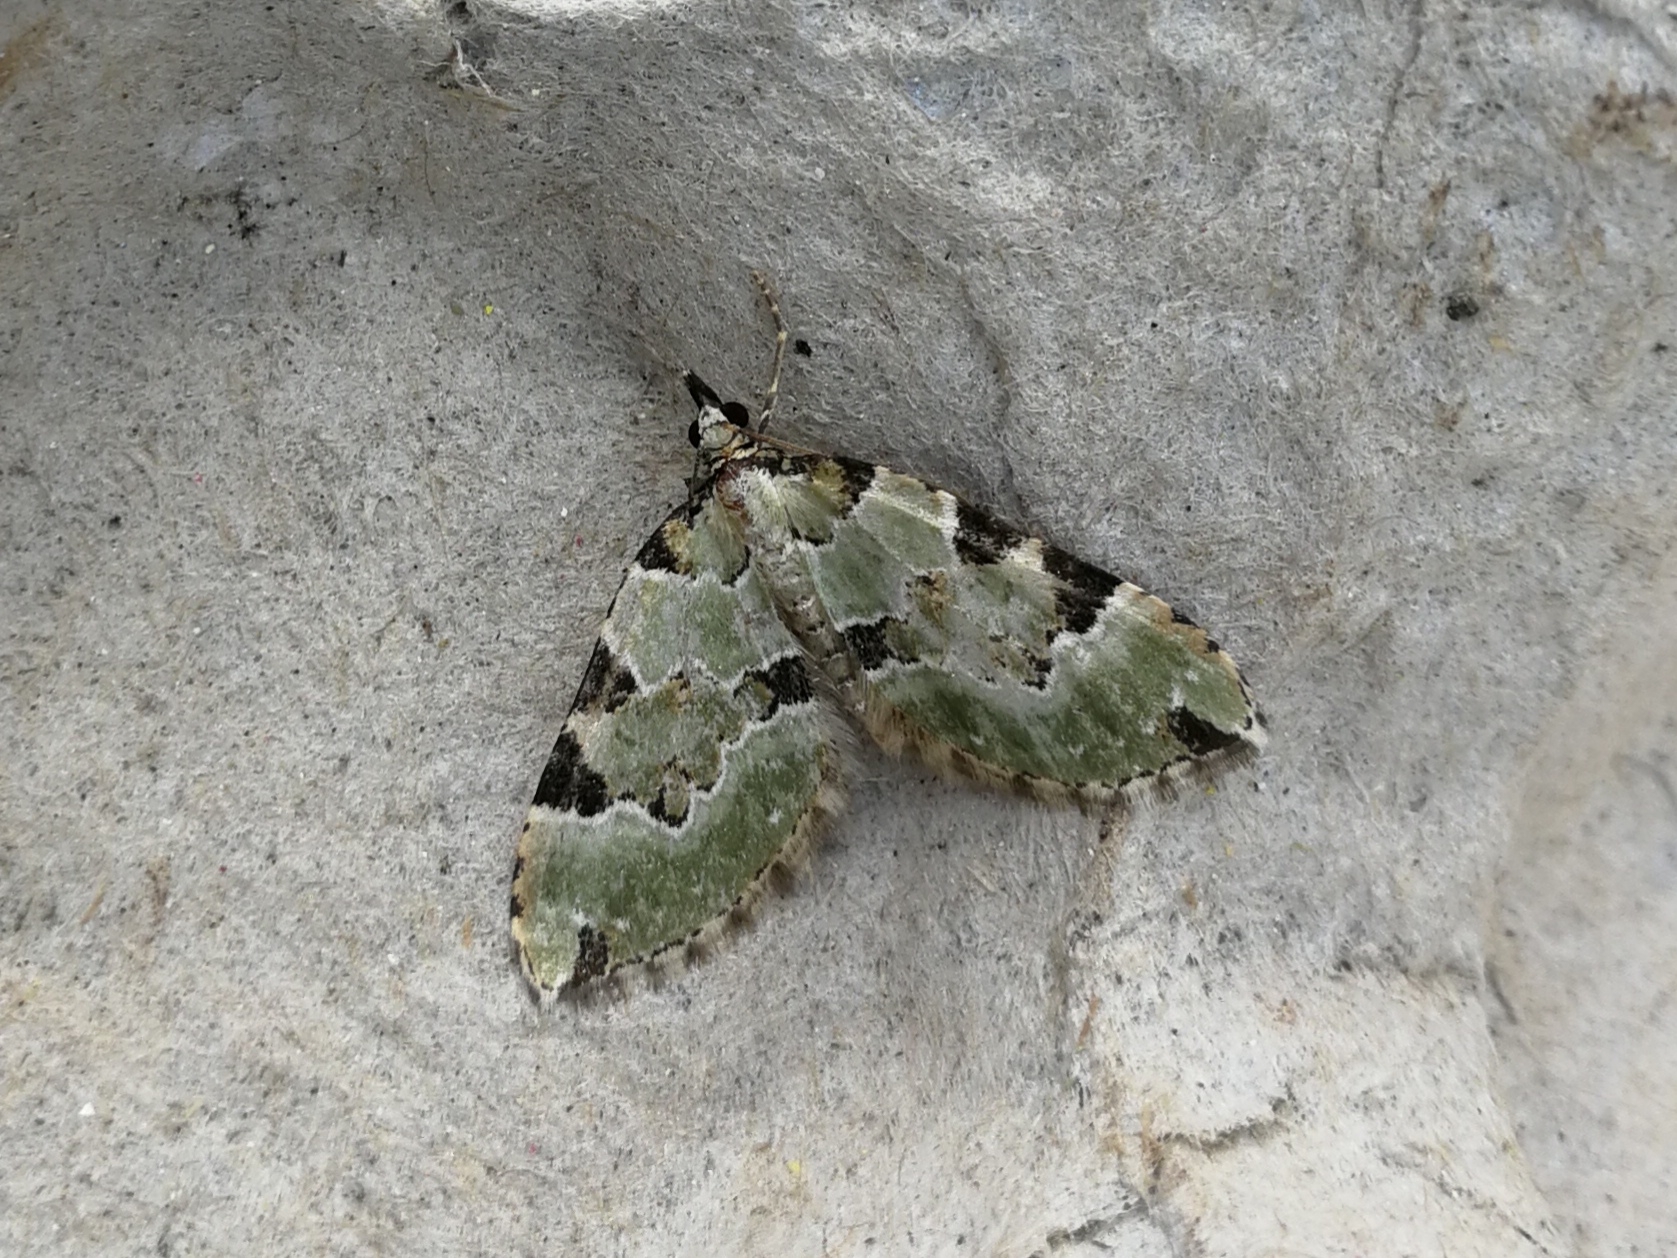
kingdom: Animalia
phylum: Arthropoda
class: Insecta
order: Lepidoptera
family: Geometridae
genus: Colostygia
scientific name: Colostygia pectinataria
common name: Green carpet
